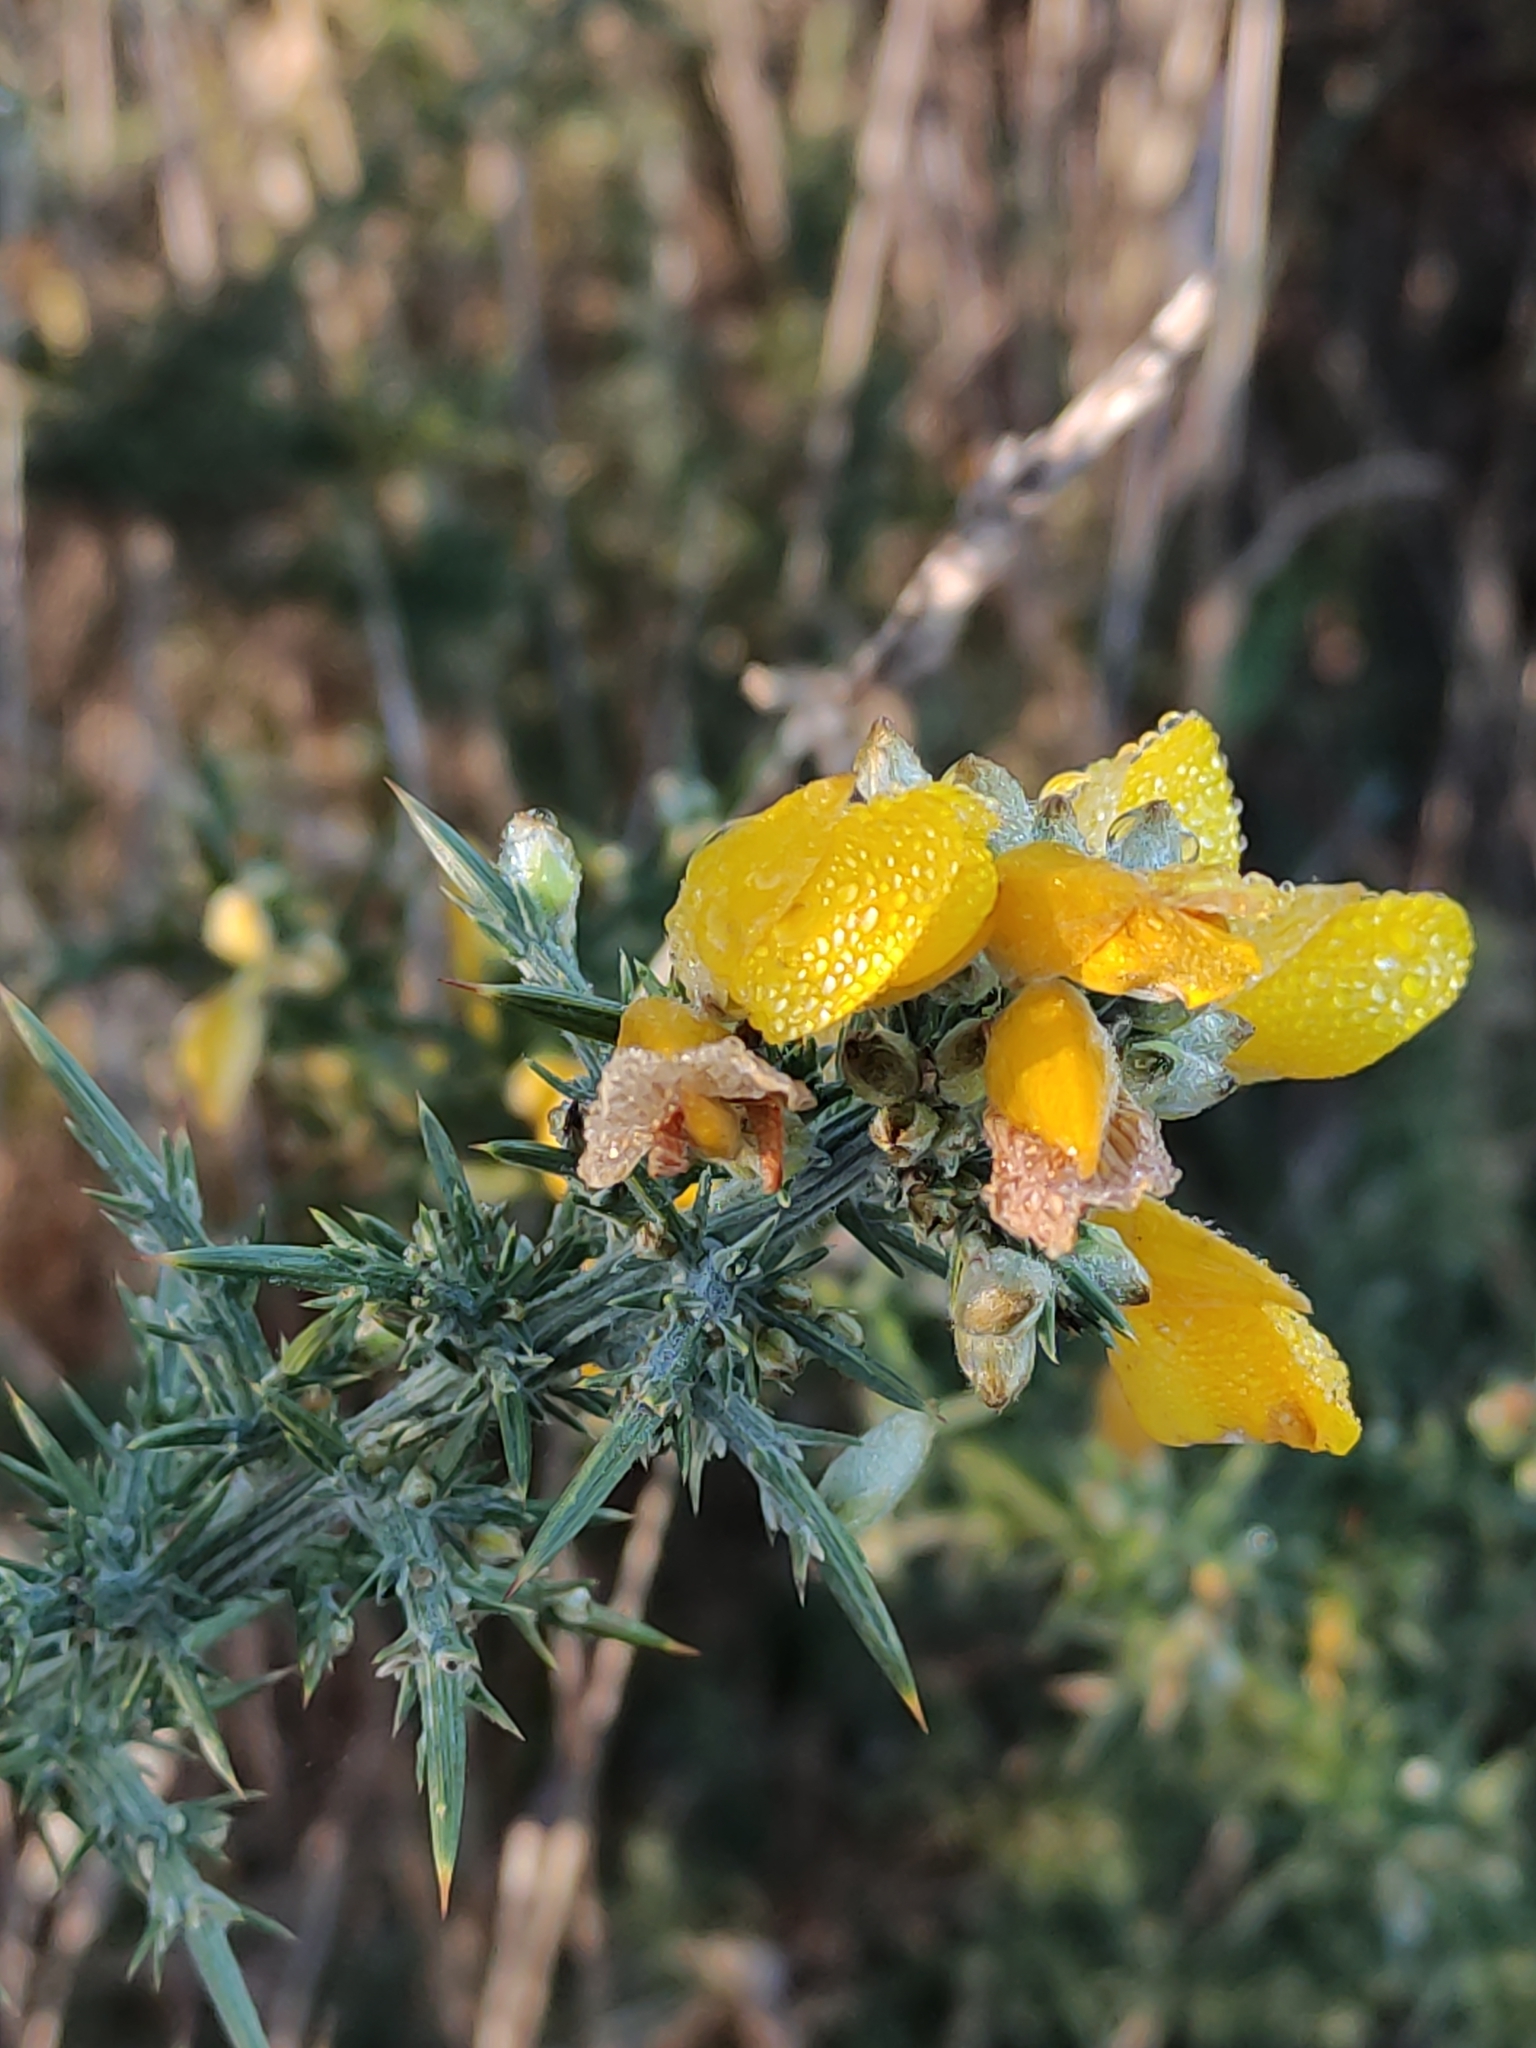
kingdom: Plantae
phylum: Tracheophyta
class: Magnoliopsida
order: Fabales
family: Fabaceae
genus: Ulex
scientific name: Ulex europaeus
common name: Common gorse
